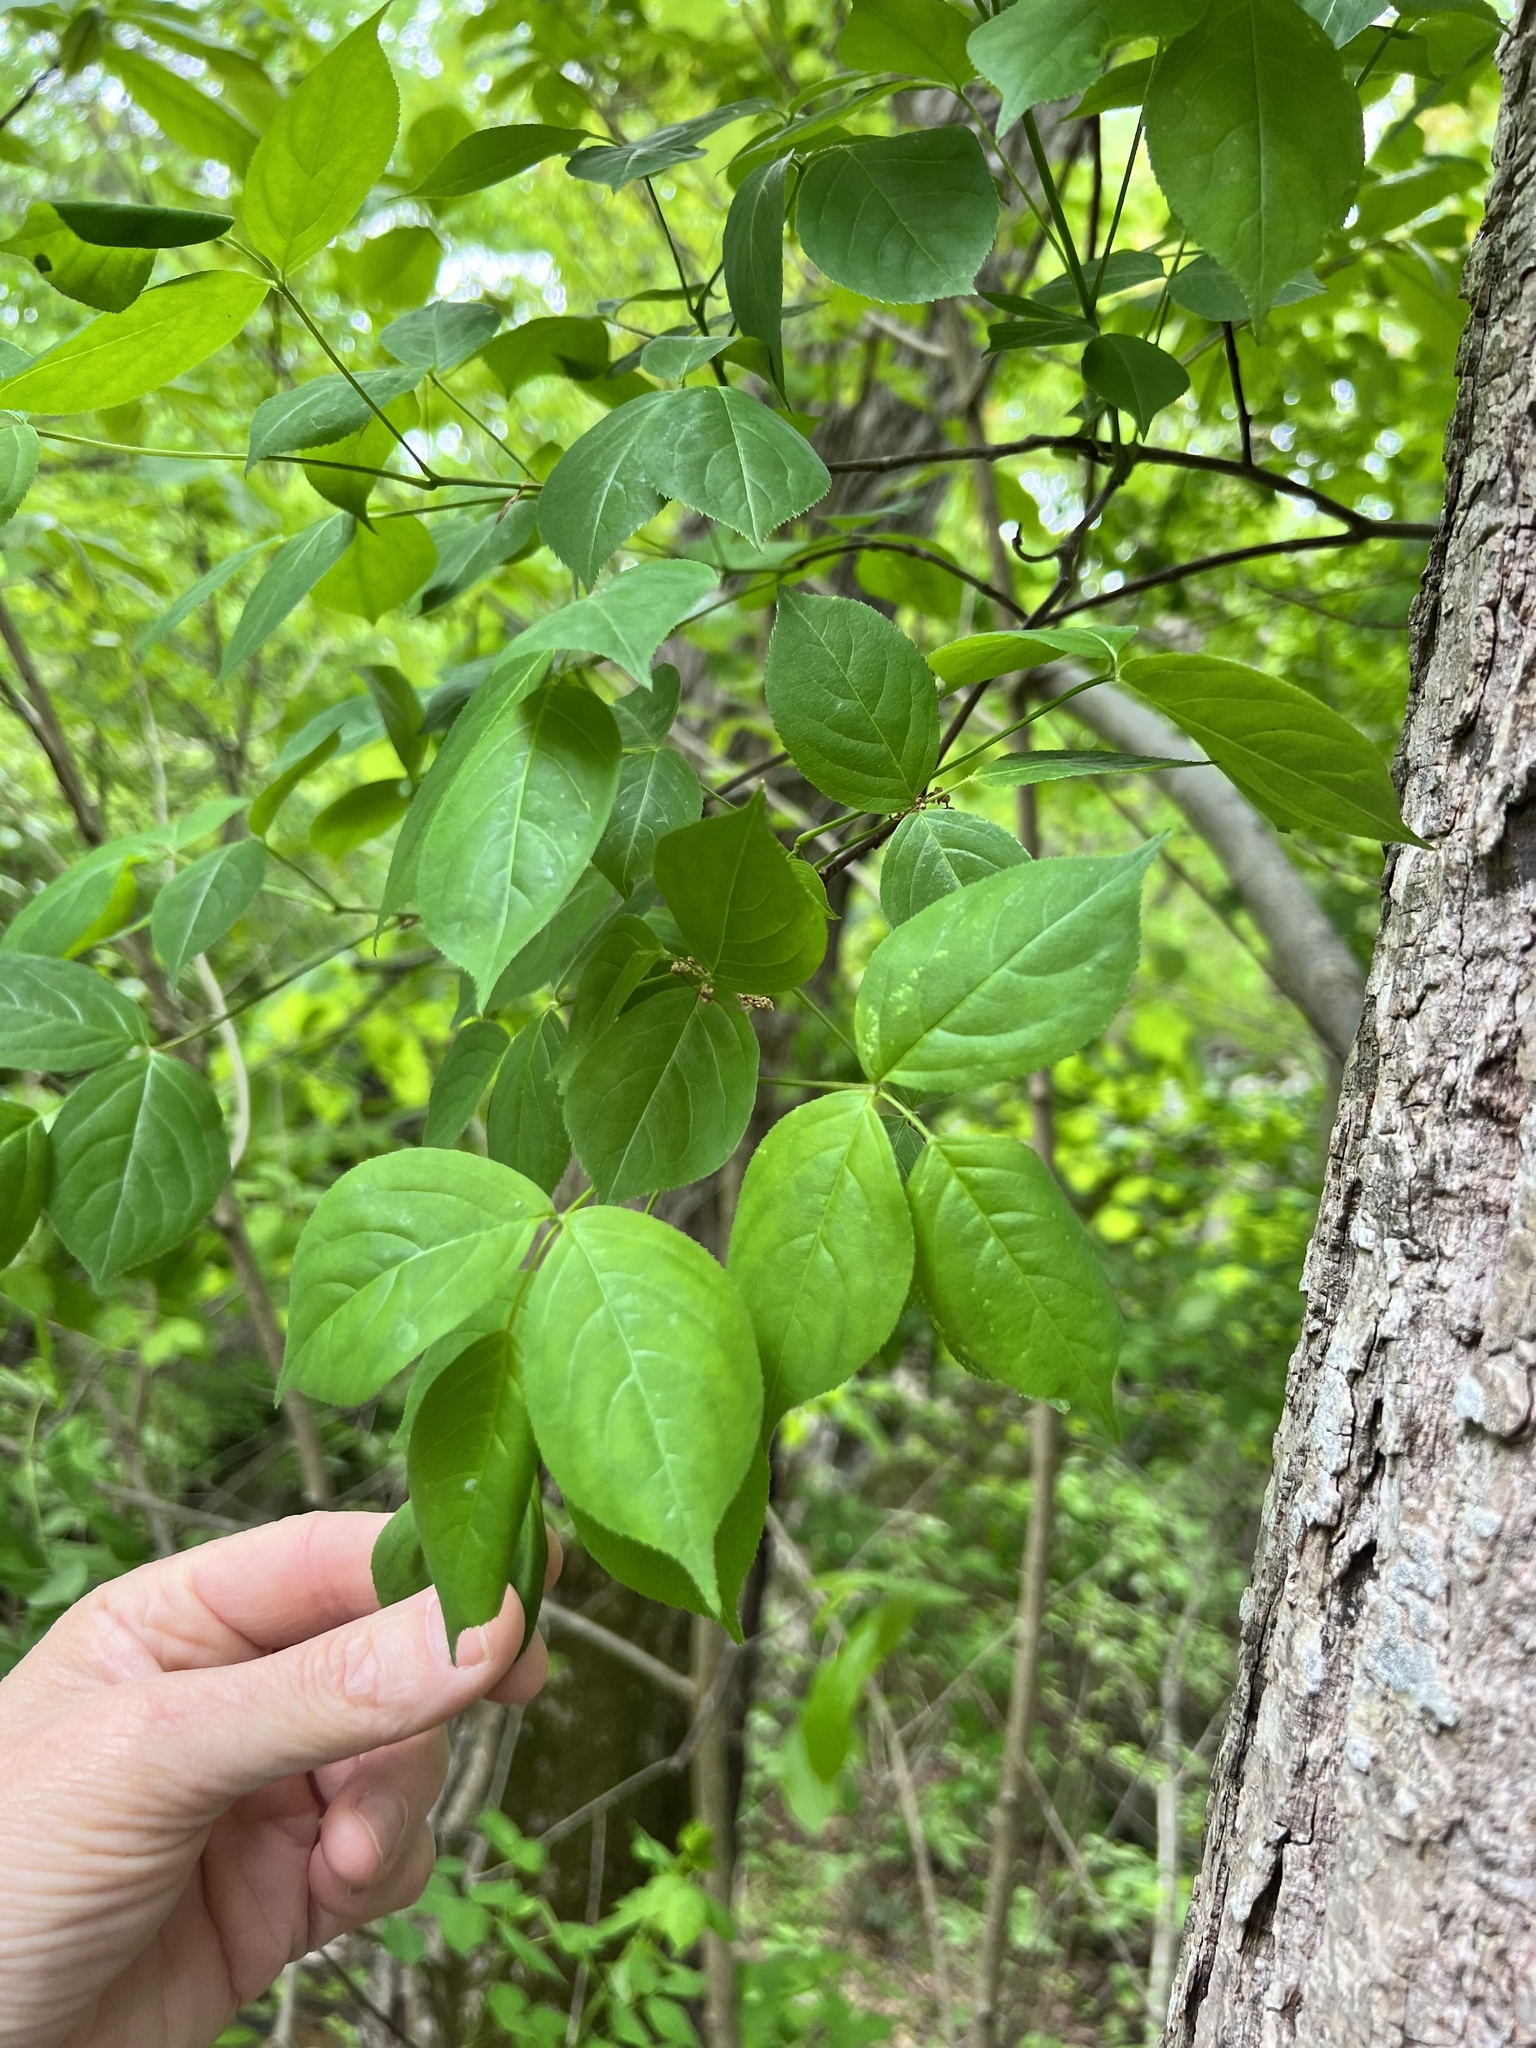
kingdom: Plantae
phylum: Tracheophyta
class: Magnoliopsida
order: Crossosomatales
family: Staphyleaceae
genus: Staphylea
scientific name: Staphylea trifolia
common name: American bladdernut
